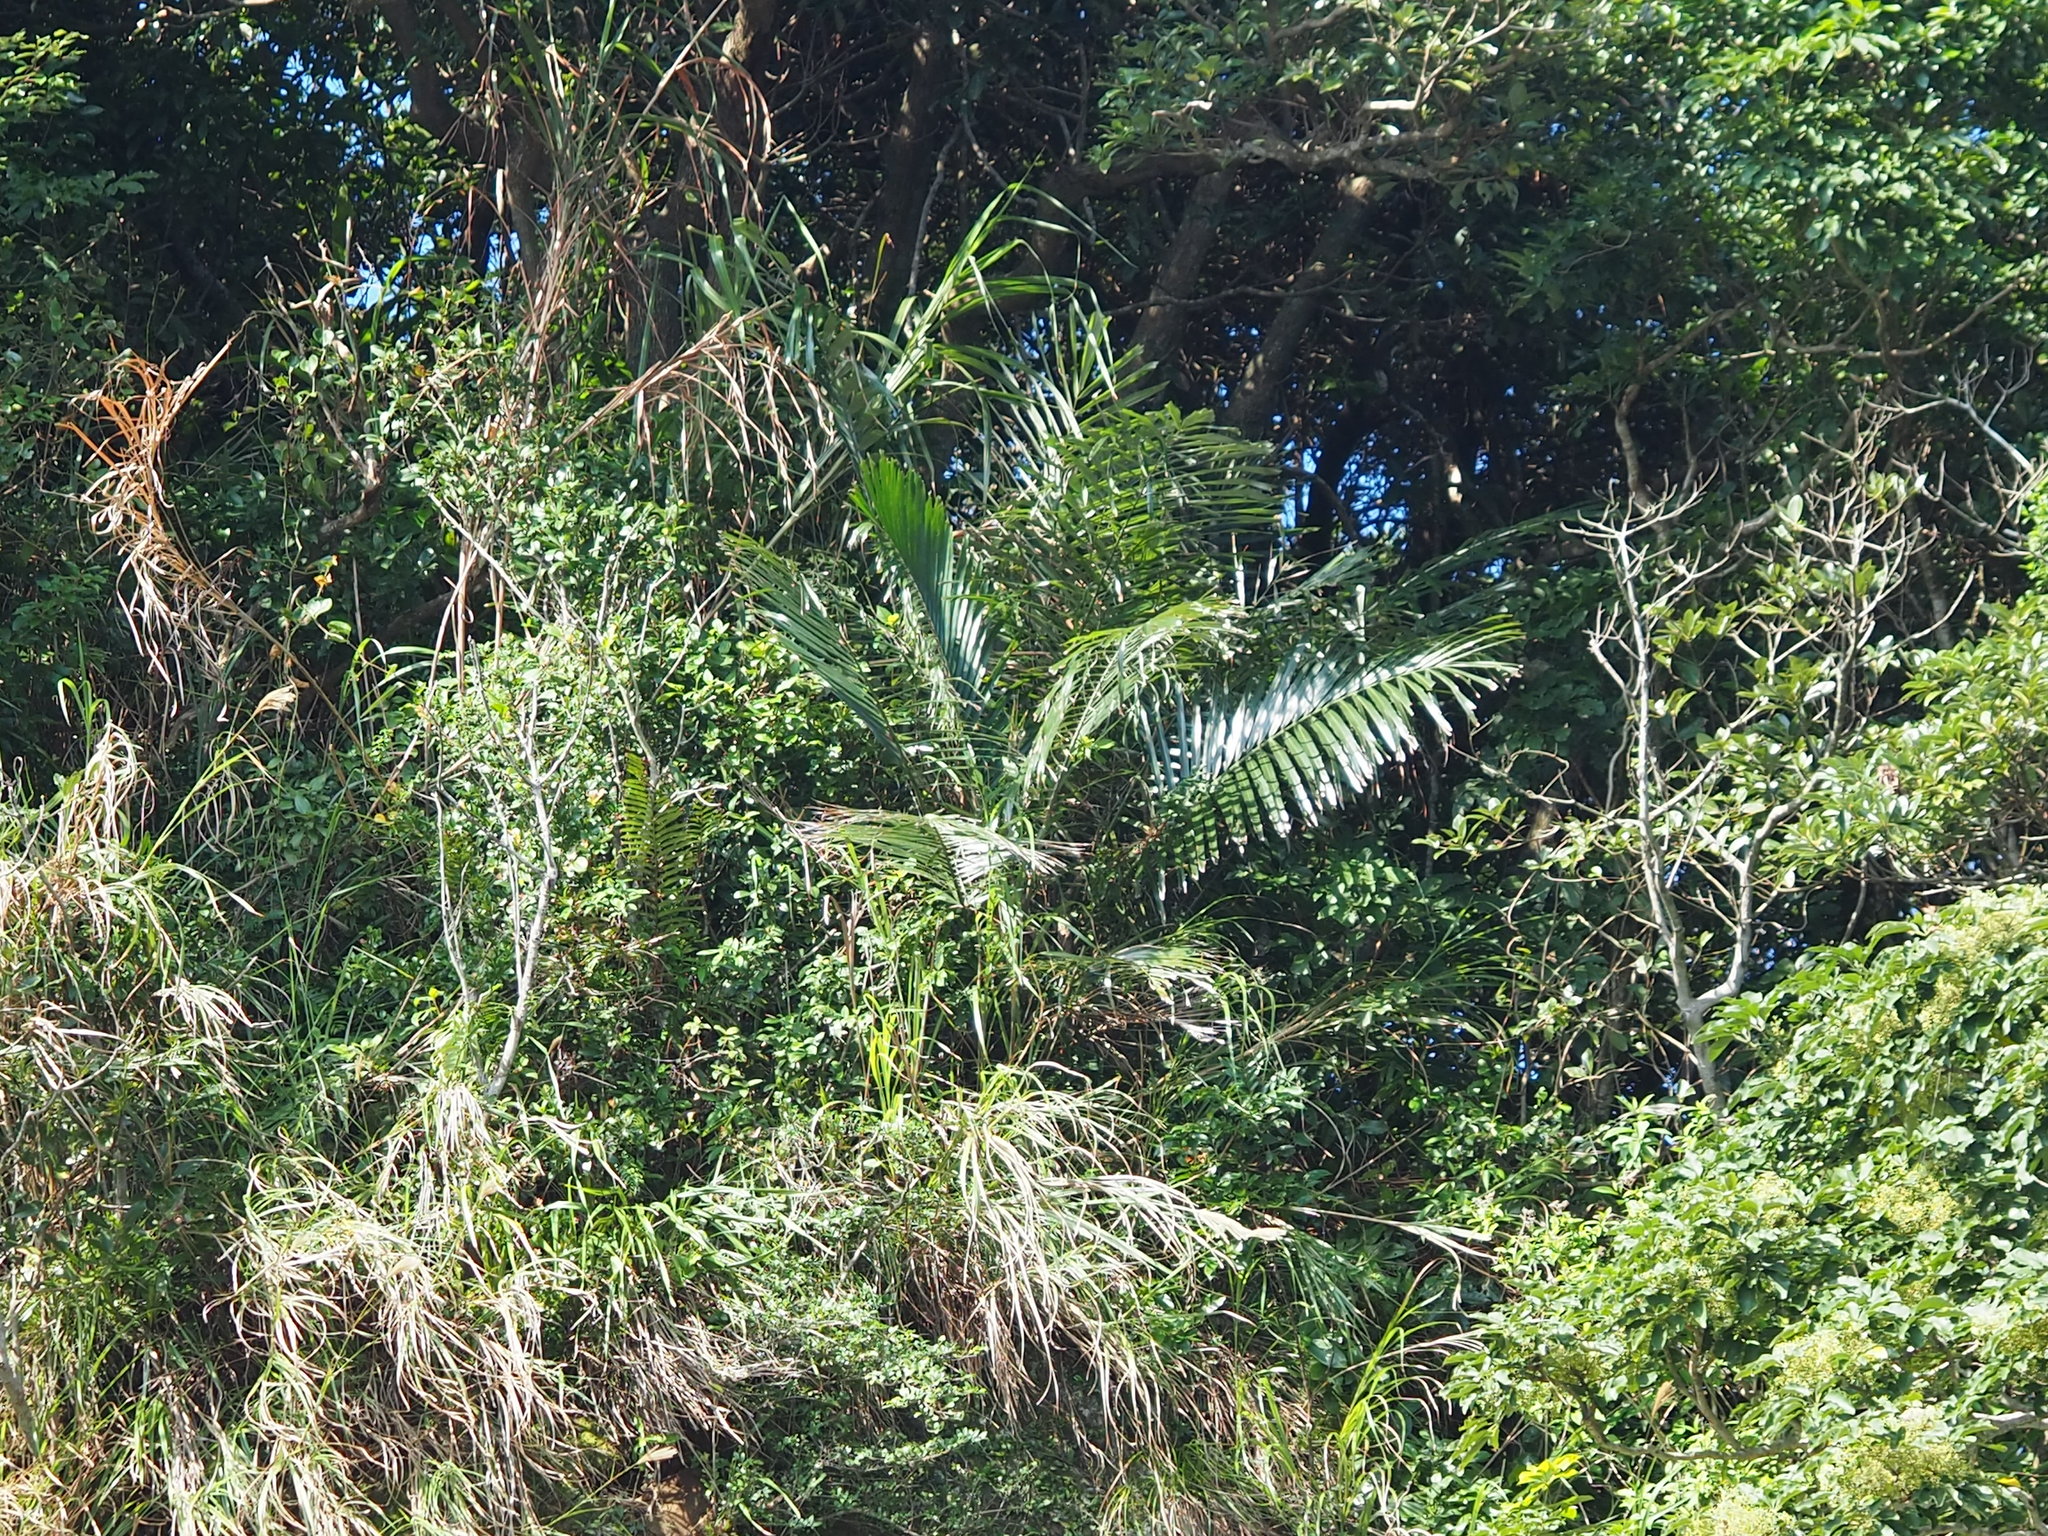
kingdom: Plantae
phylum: Tracheophyta
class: Liliopsida
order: Arecales
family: Arecaceae
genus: Arenga
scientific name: Arenga engleri
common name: Formosan sugar palm
